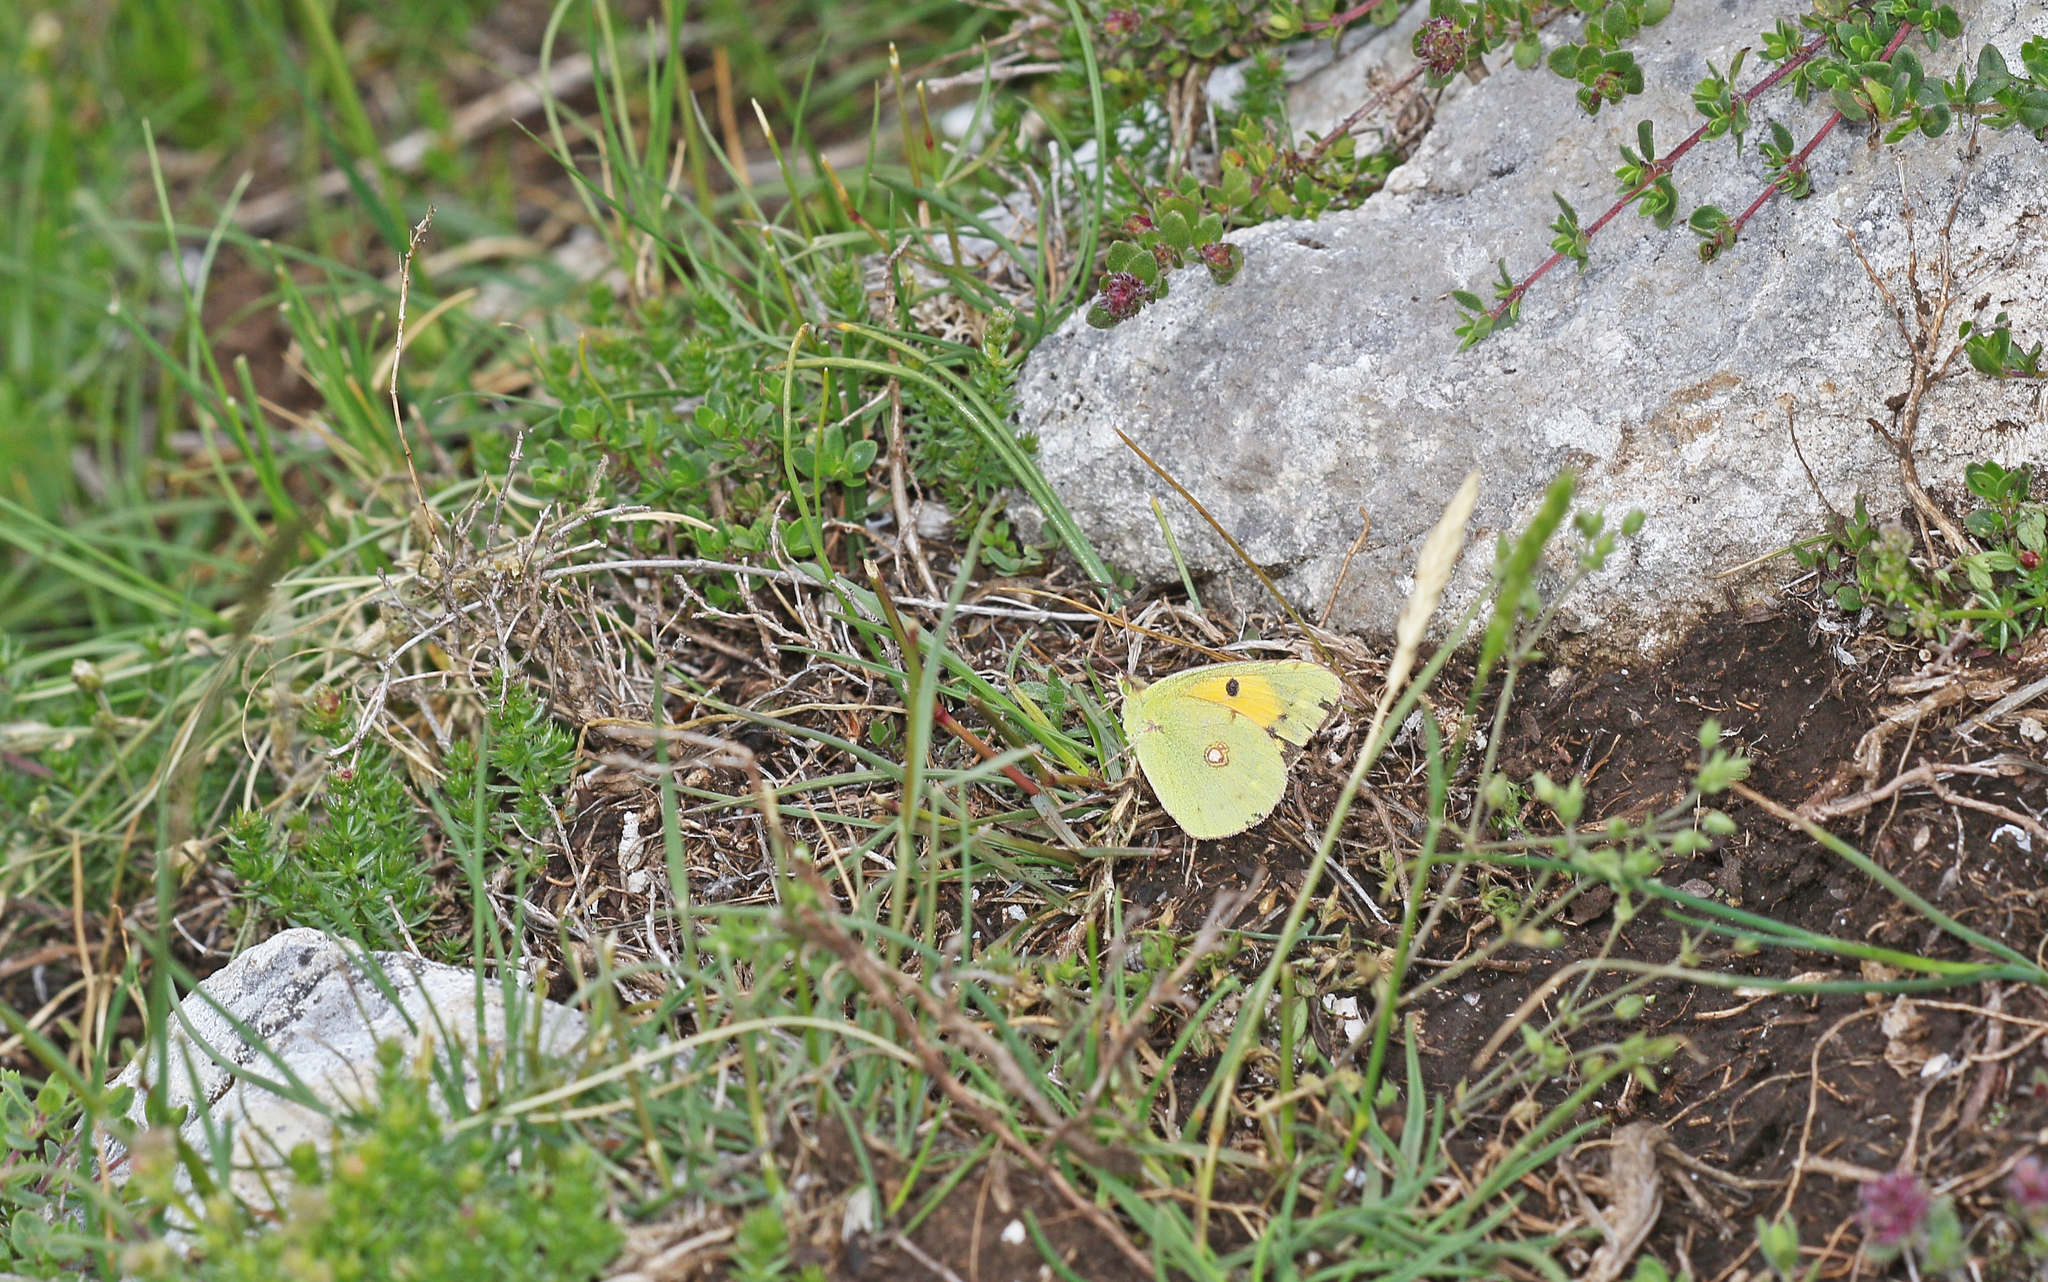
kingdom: Animalia
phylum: Arthropoda
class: Insecta
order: Lepidoptera
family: Pieridae
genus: Colias
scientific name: Colias croceus
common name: Clouded yellow
